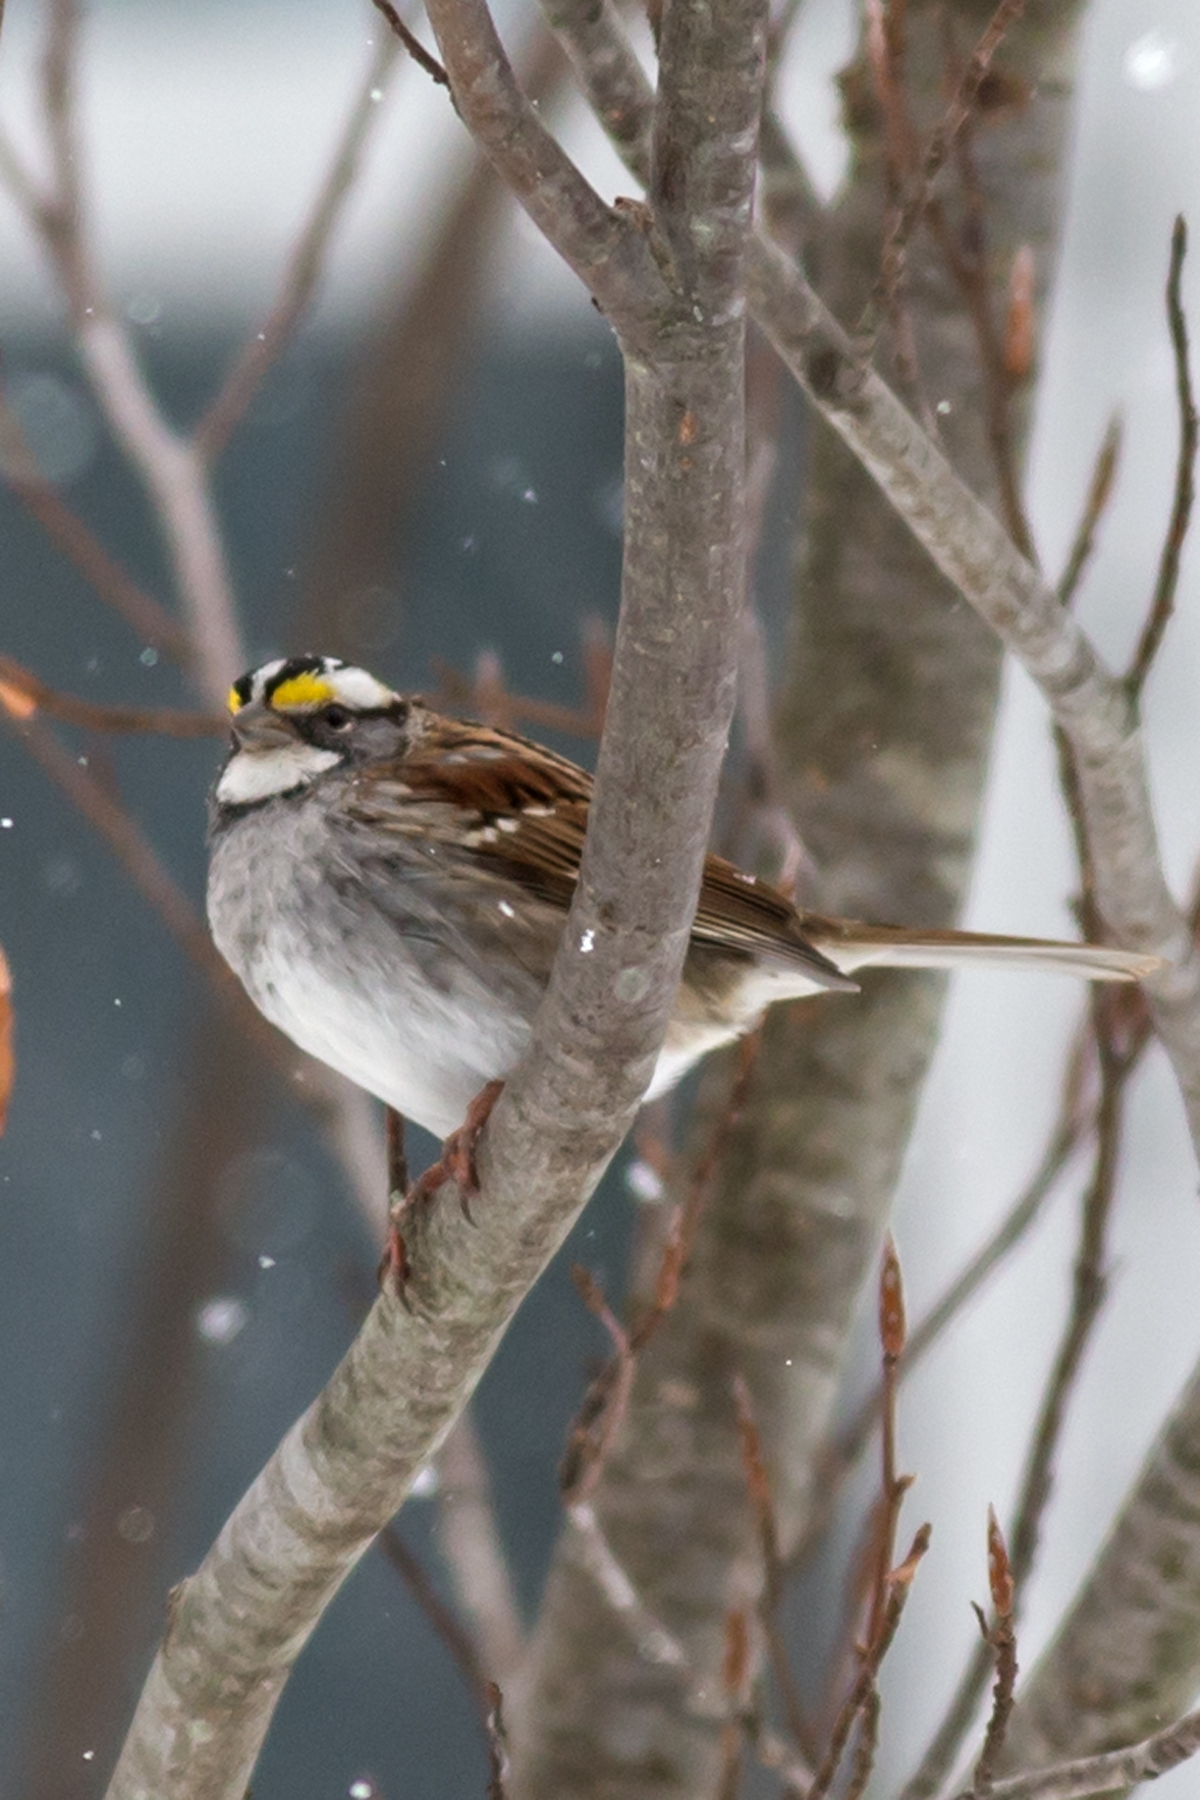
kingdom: Animalia
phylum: Chordata
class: Aves
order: Passeriformes
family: Passerellidae
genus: Zonotrichia
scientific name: Zonotrichia albicollis
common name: White-throated sparrow
